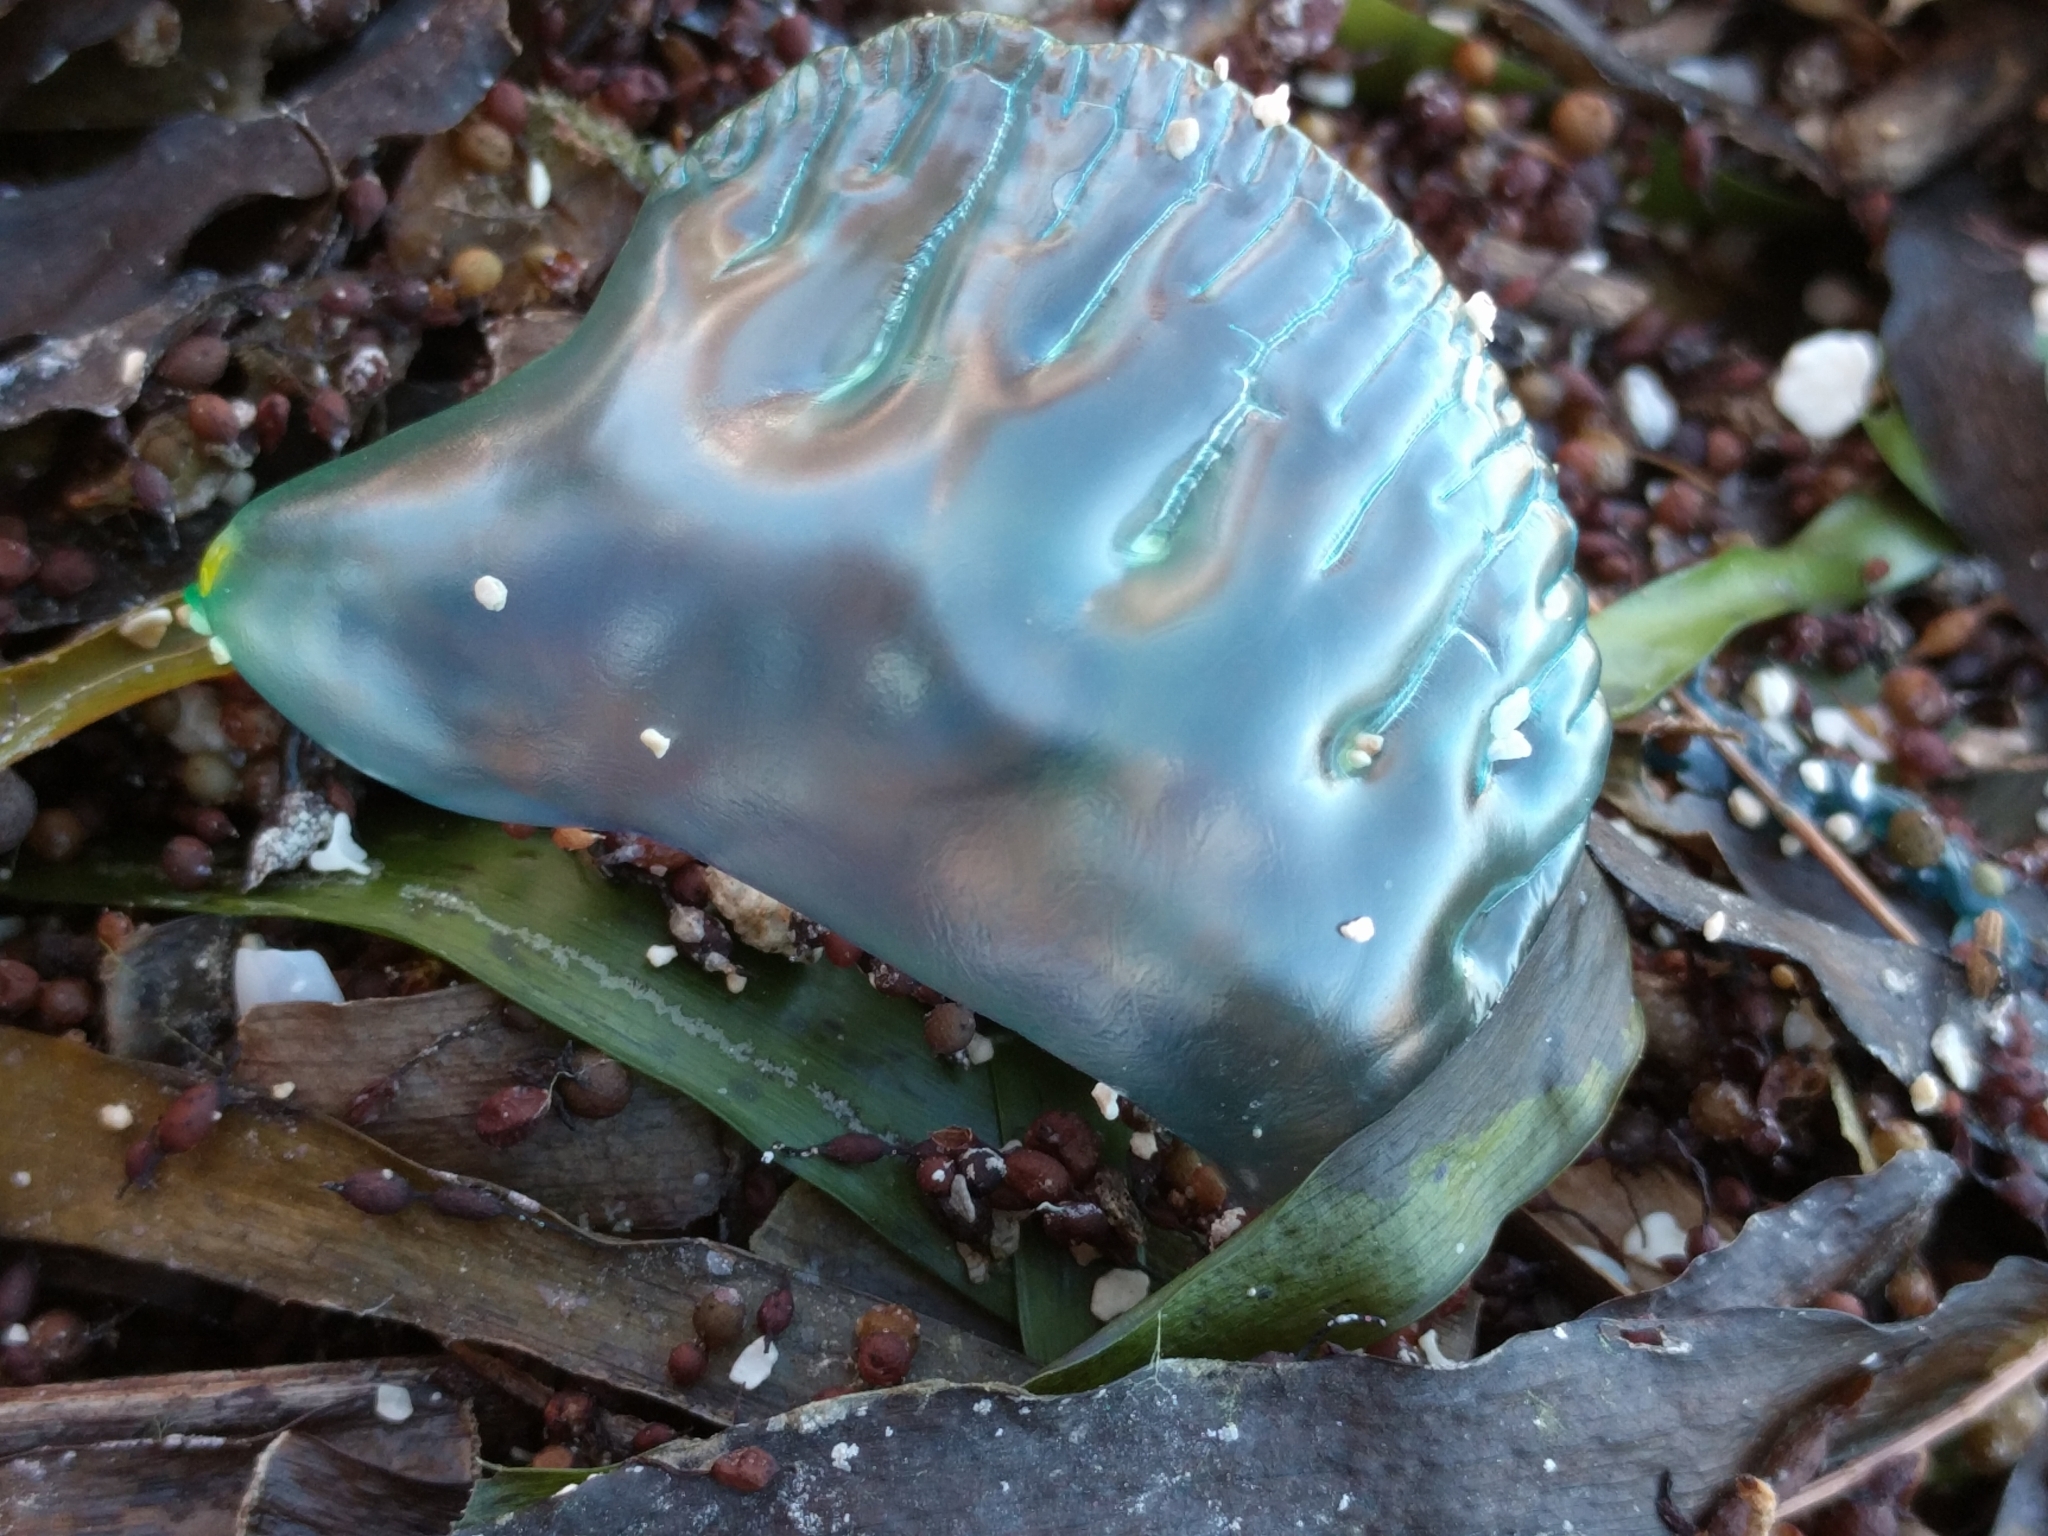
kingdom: Animalia
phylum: Cnidaria
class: Hydrozoa
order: Siphonophorae
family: Physaliidae
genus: Physalia
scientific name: Physalia physalis
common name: Portuguese man-of-war
